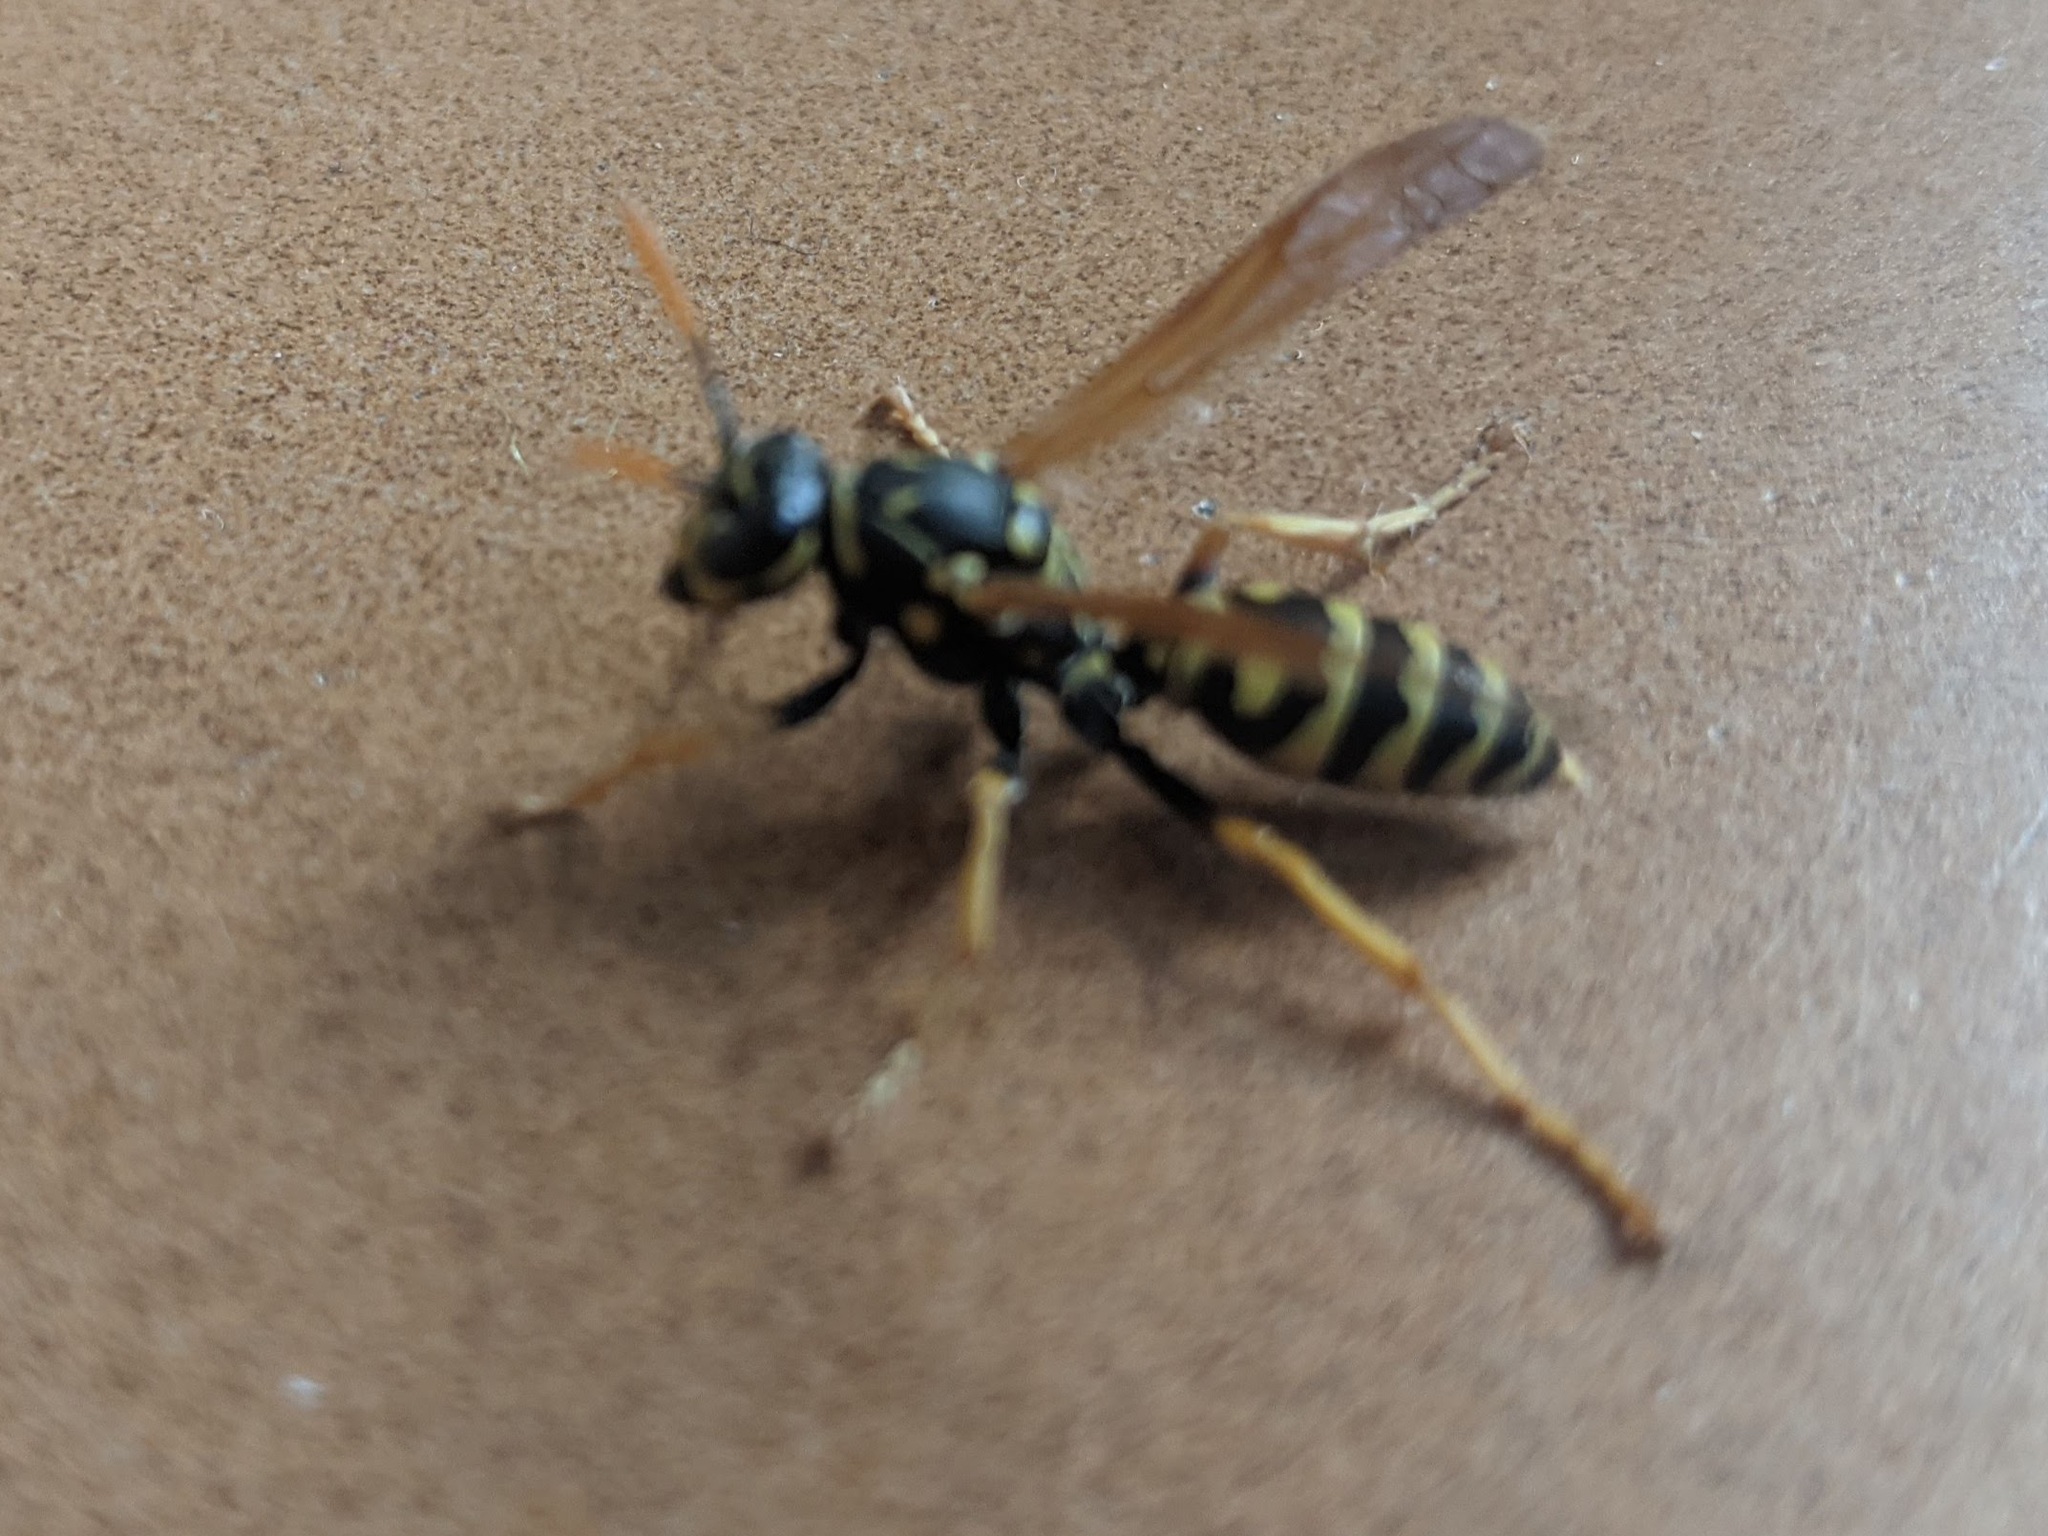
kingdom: Animalia
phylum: Arthropoda
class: Insecta
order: Hymenoptera
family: Eumenidae
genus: Polistes
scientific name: Polistes dominula
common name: Paper wasp
